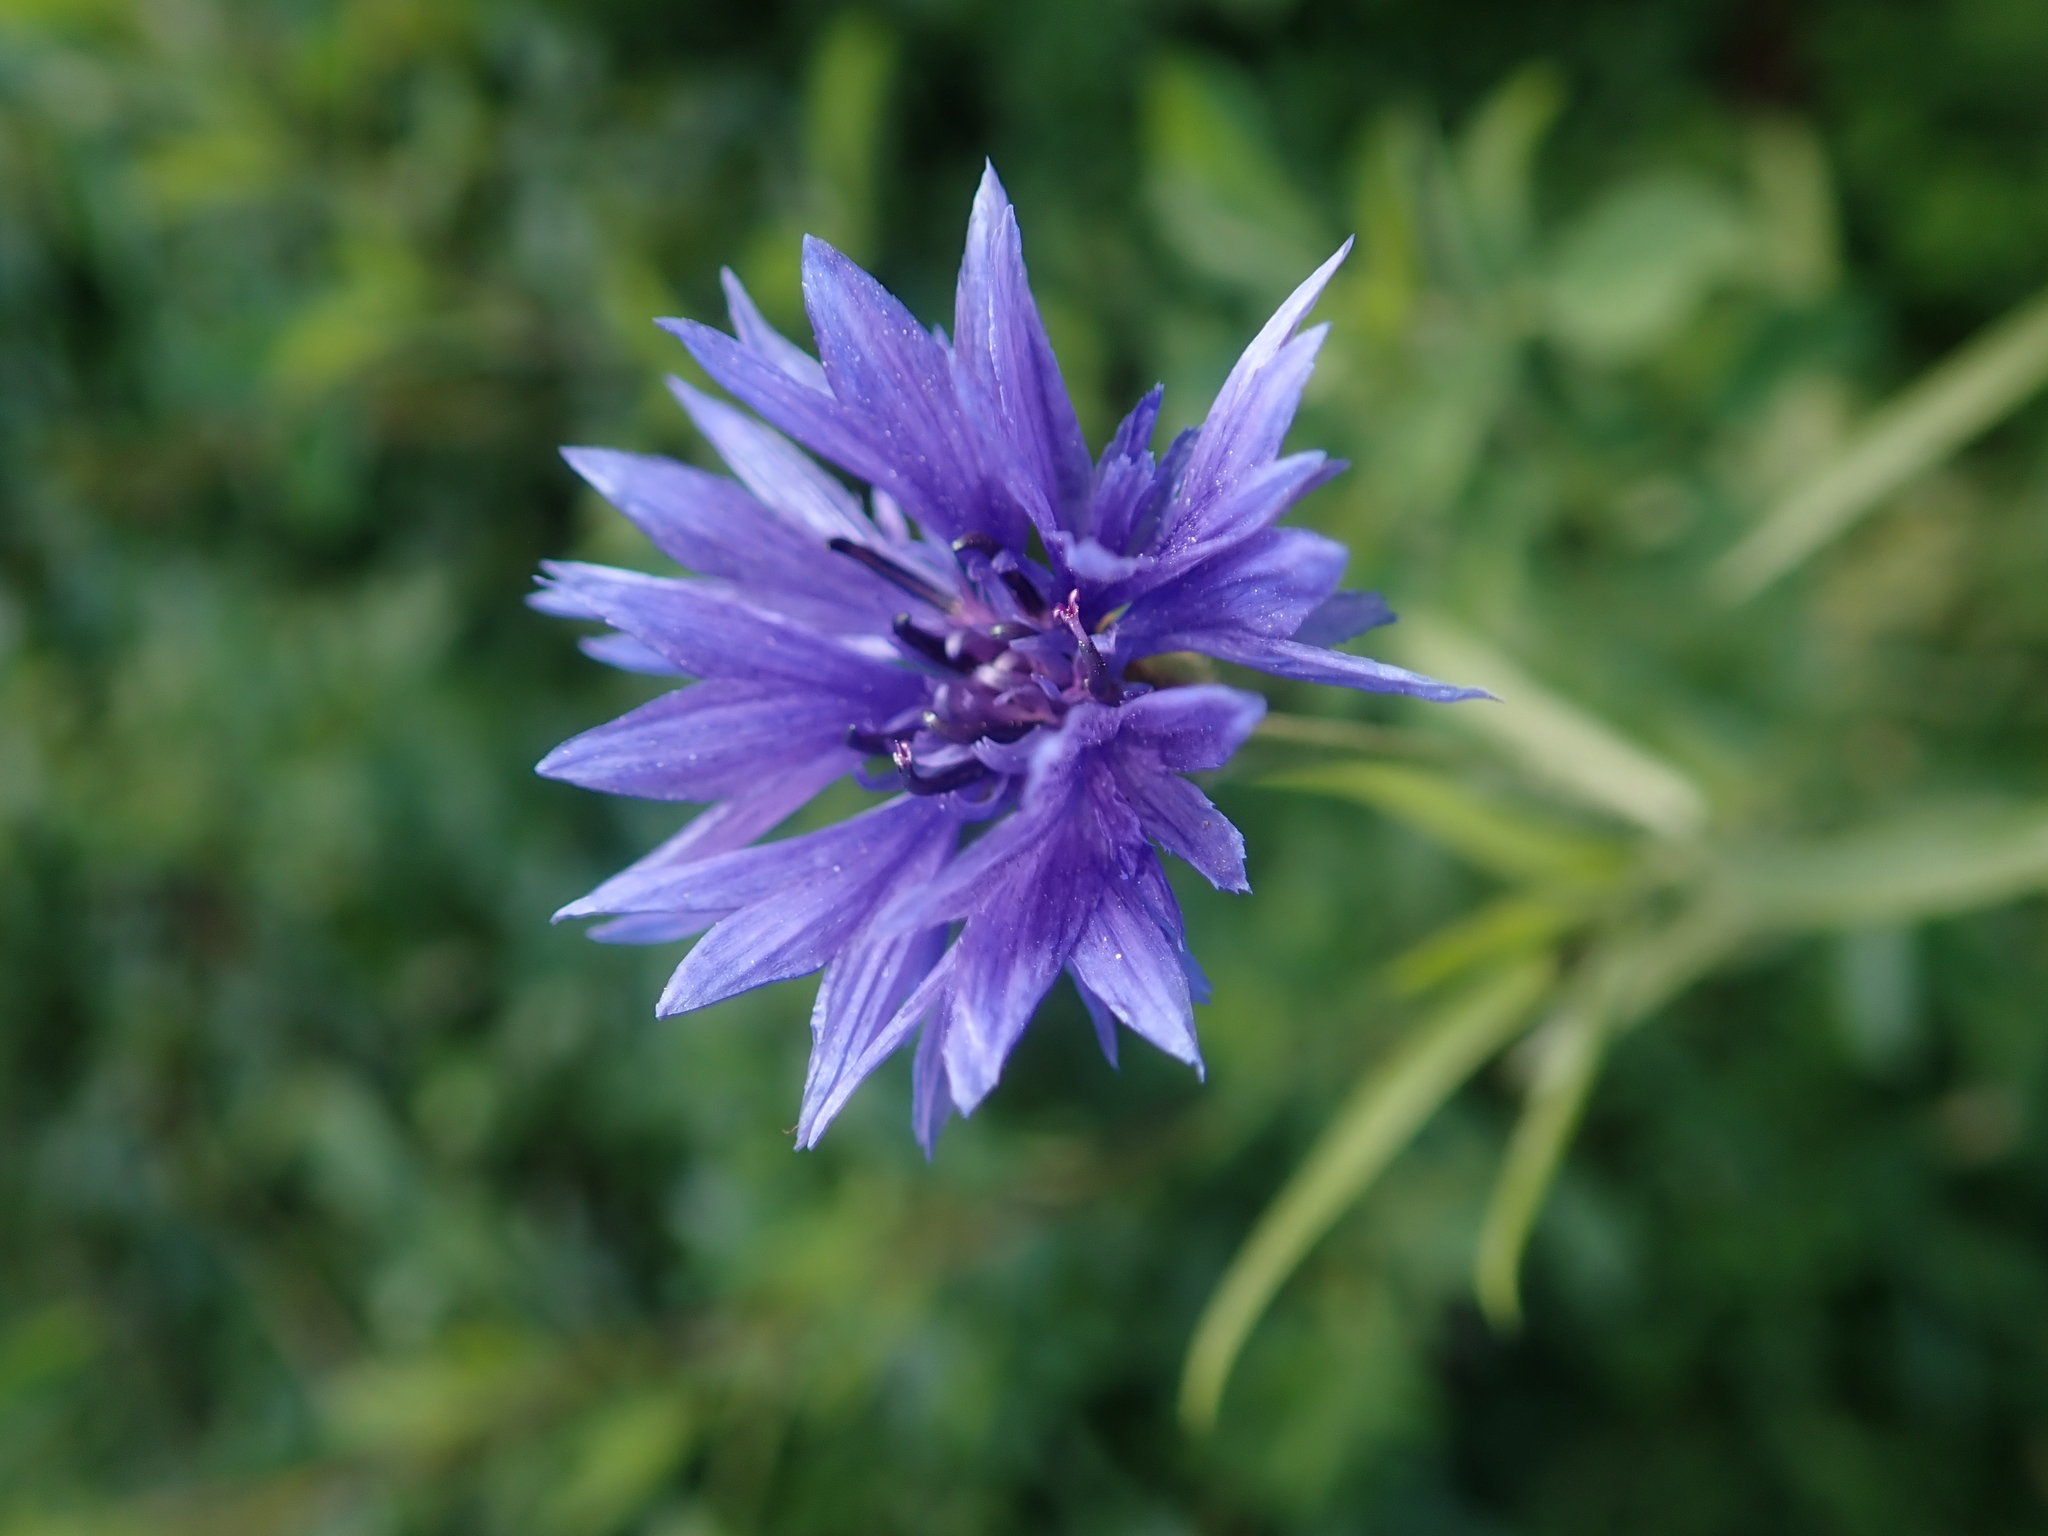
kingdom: Plantae
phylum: Tracheophyta
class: Magnoliopsida
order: Asterales
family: Asteraceae
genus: Centaurea
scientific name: Centaurea cyanus
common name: Cornflower
